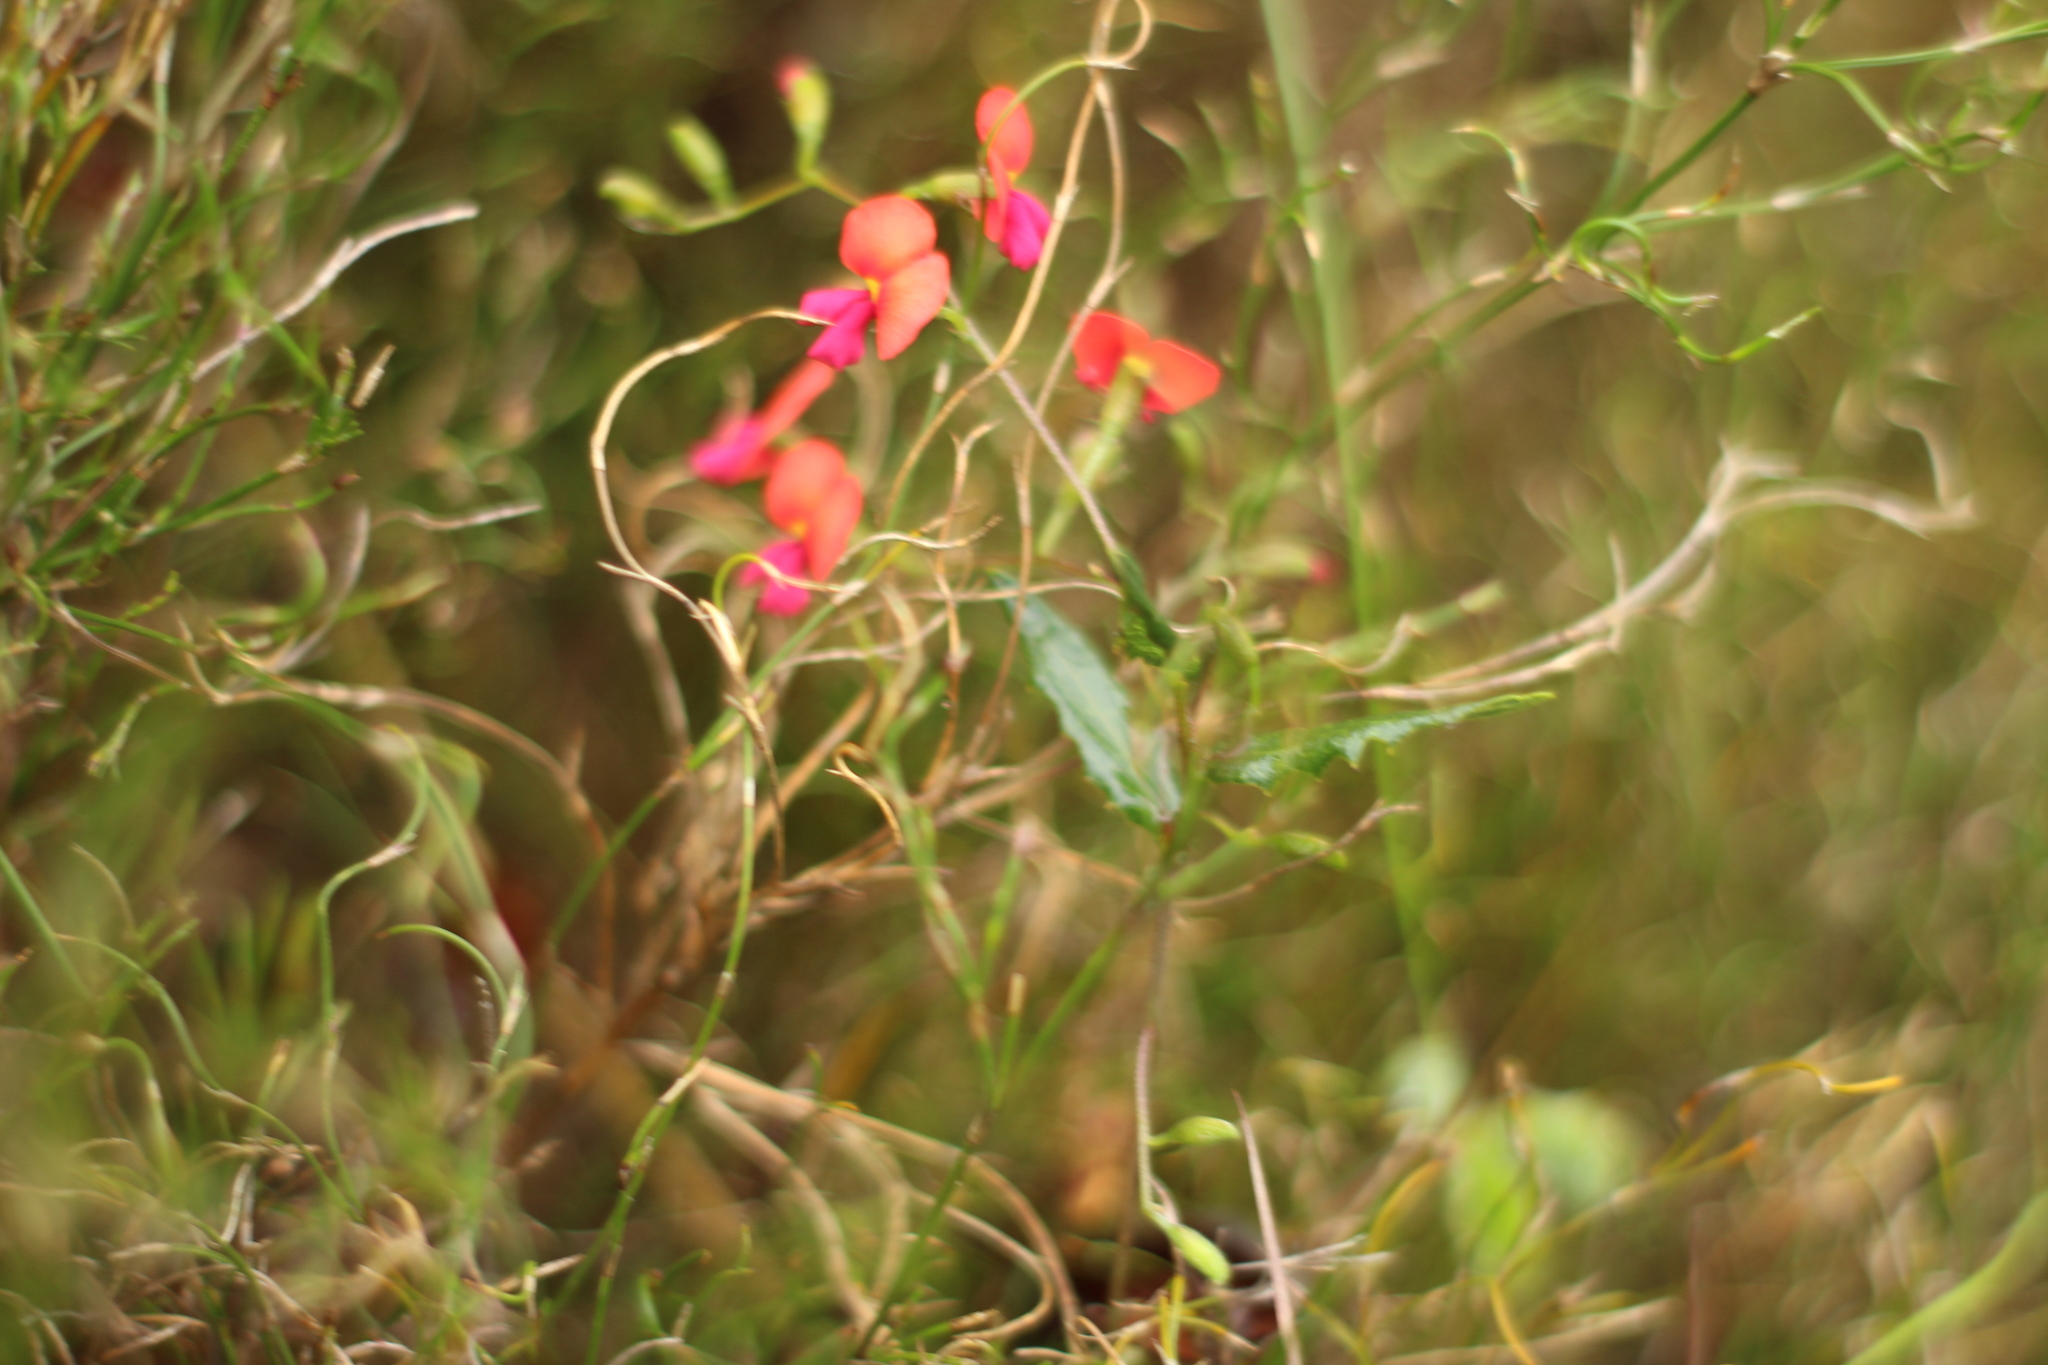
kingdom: Plantae
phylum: Tracheophyta
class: Magnoliopsida
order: Fabales
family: Fabaceae
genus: Chorizema
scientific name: Chorizema cordatum
